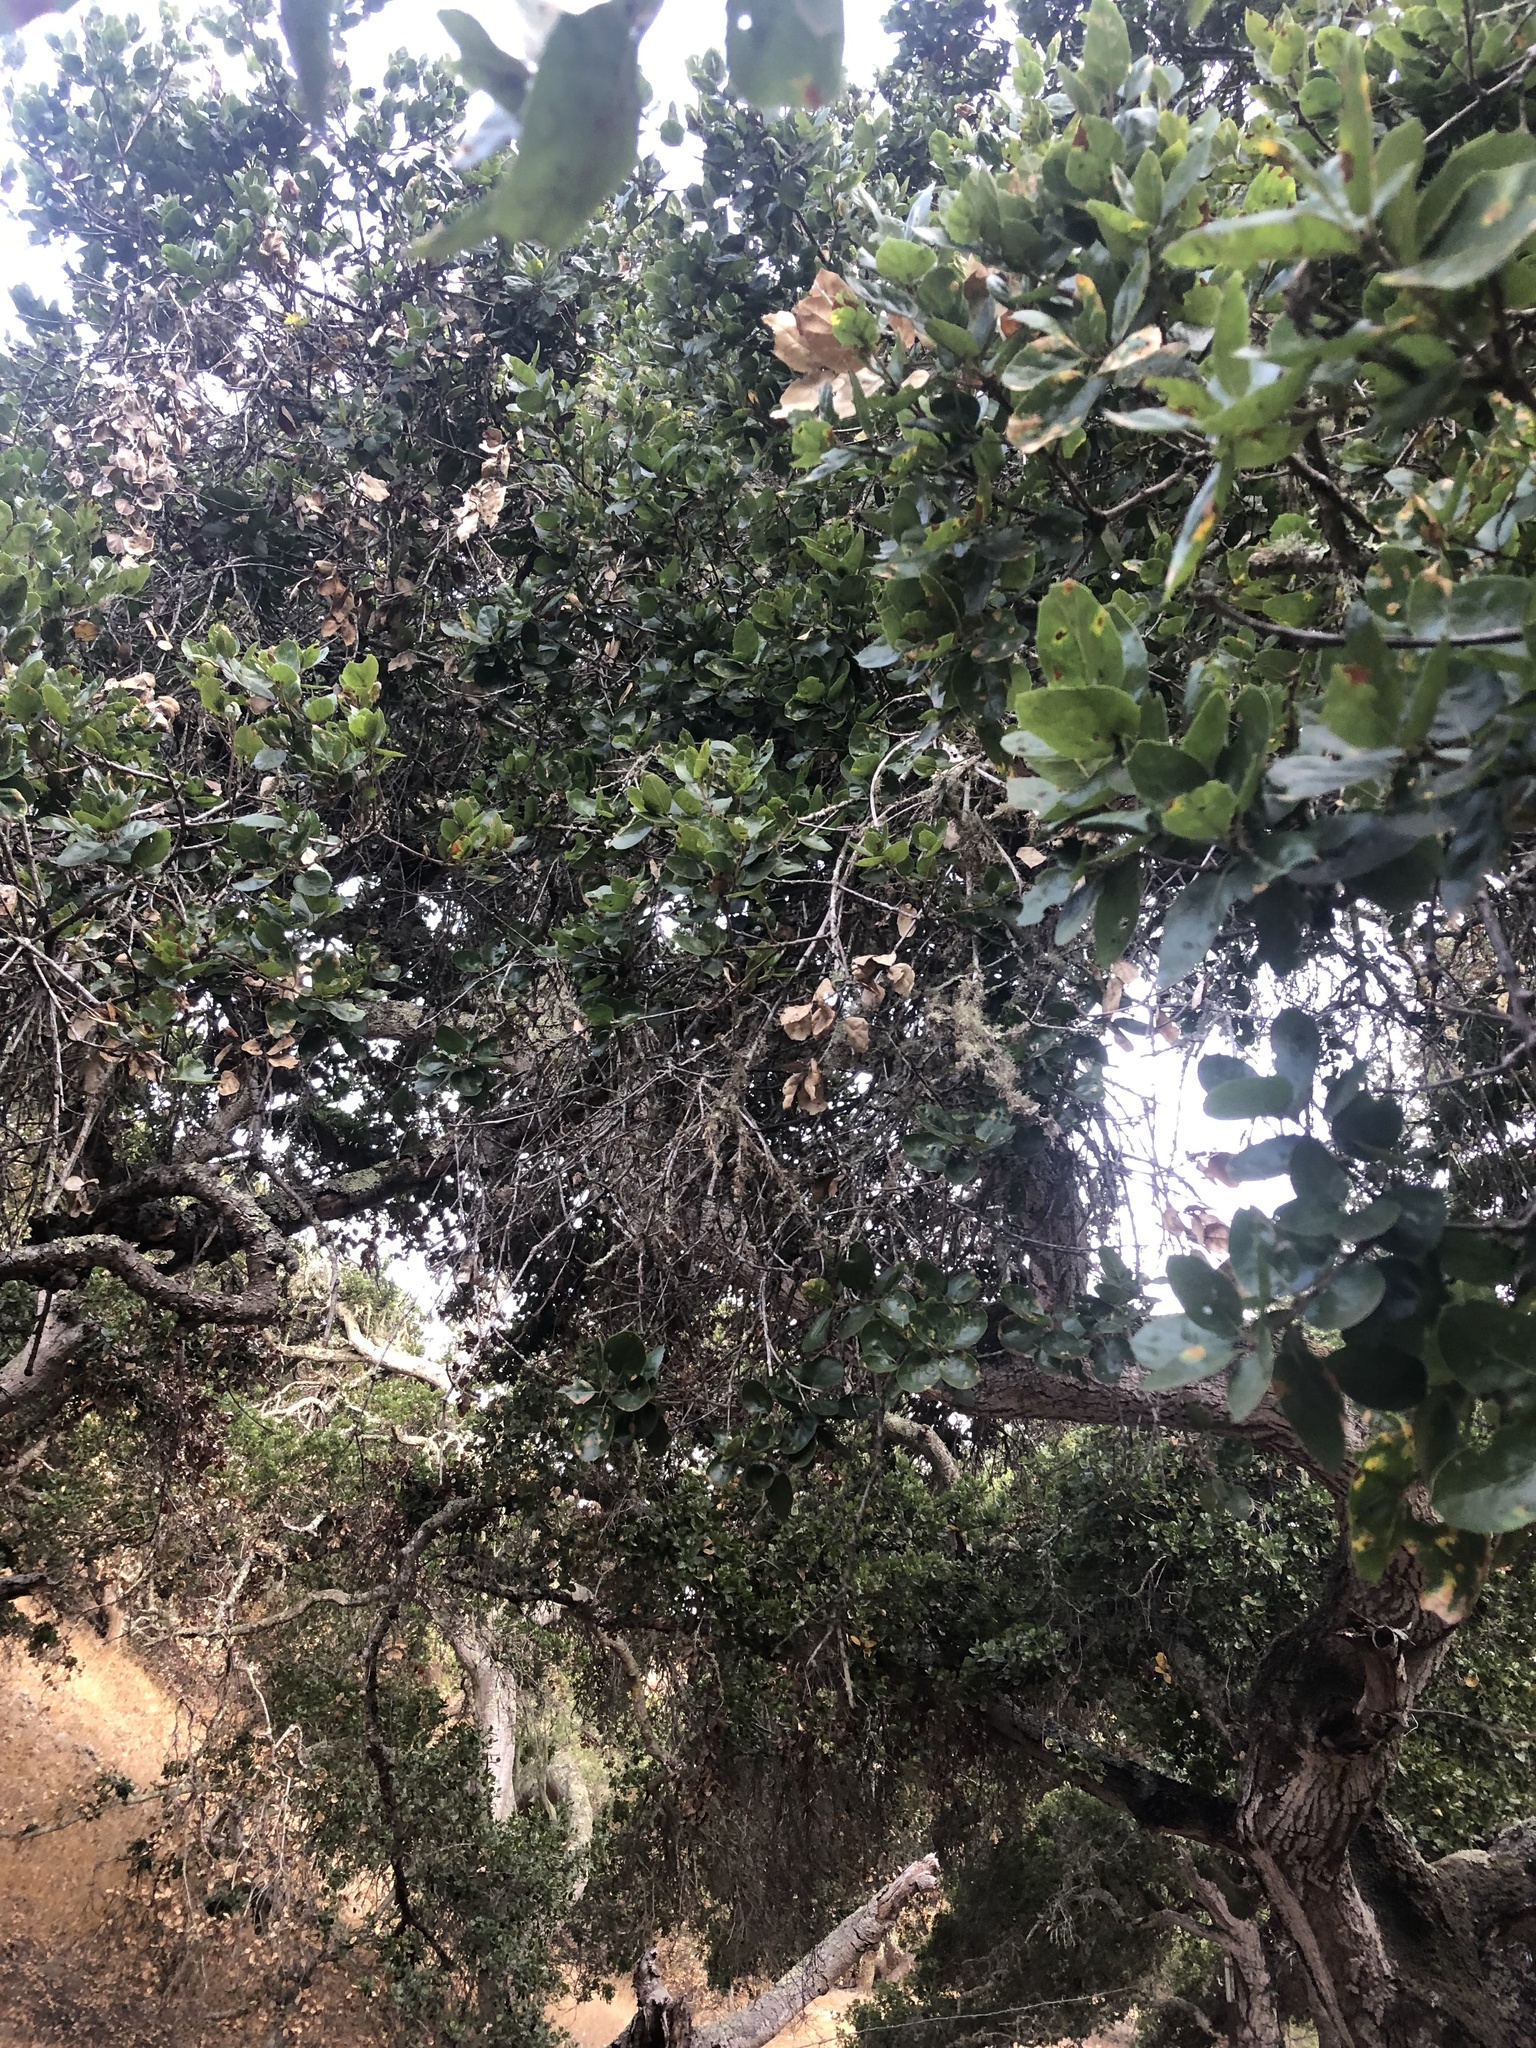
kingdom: Plantae
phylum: Tracheophyta
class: Magnoliopsida
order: Fagales
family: Fagaceae
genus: Quercus
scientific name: Quercus agrifolia
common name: California live oak
